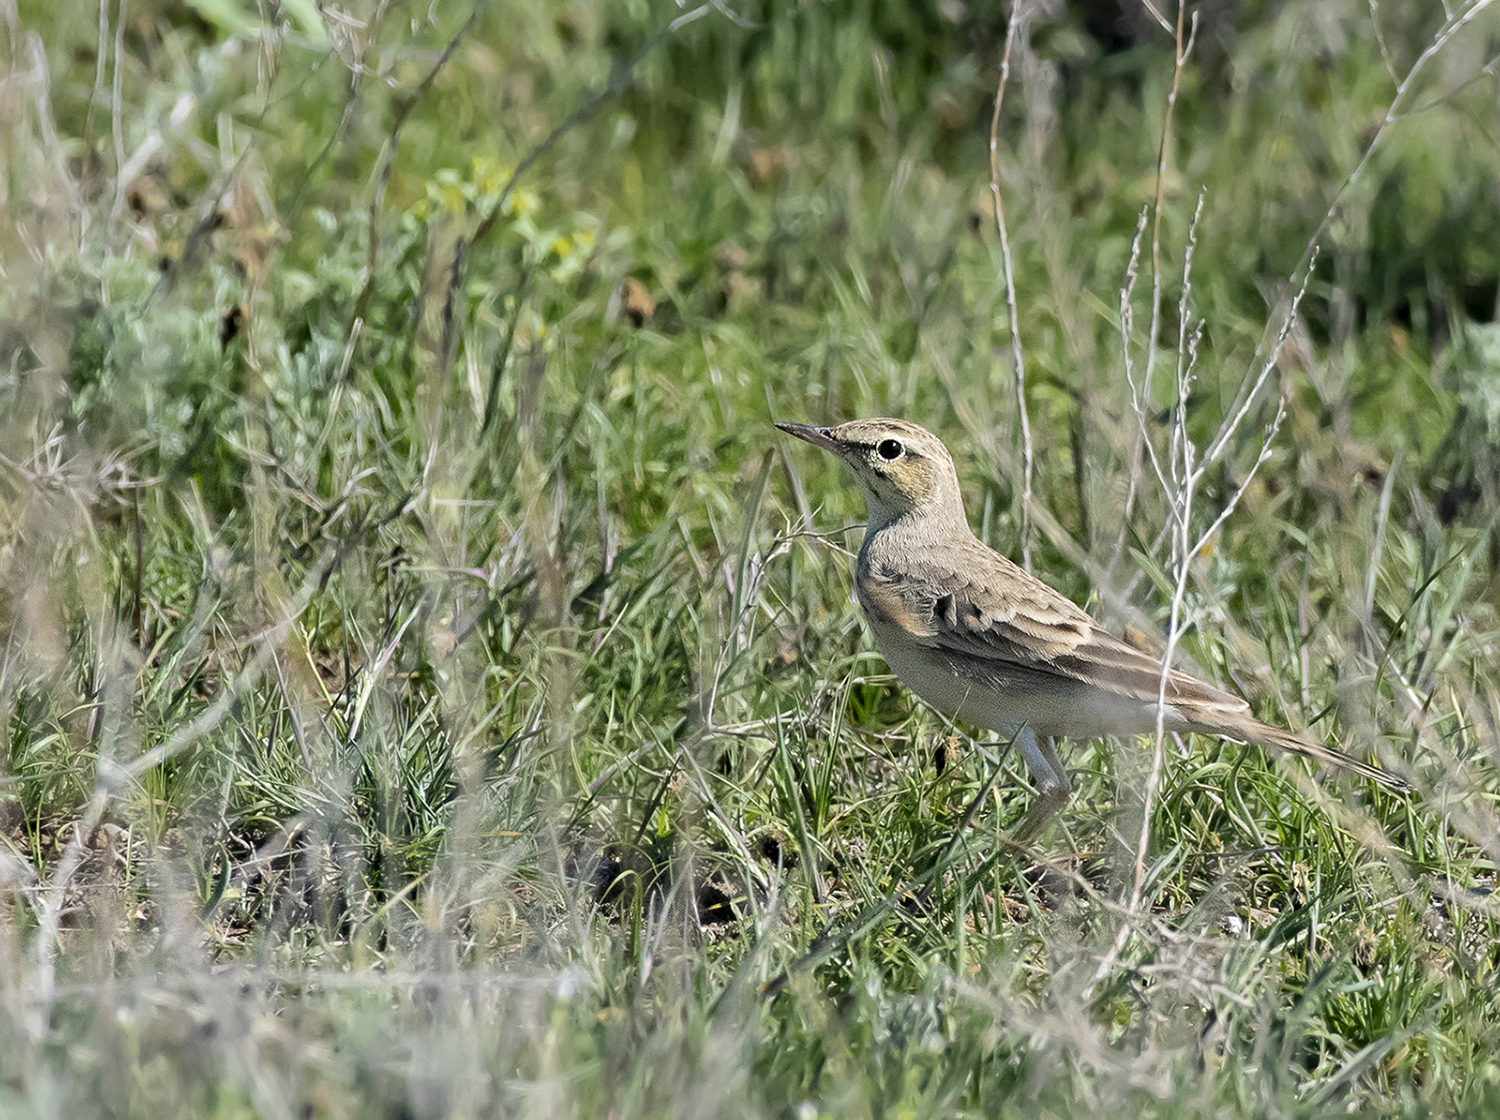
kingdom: Animalia
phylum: Chordata
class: Aves
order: Passeriformes
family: Motacillidae
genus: Anthus
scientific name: Anthus campestris
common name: Tawny pipit
